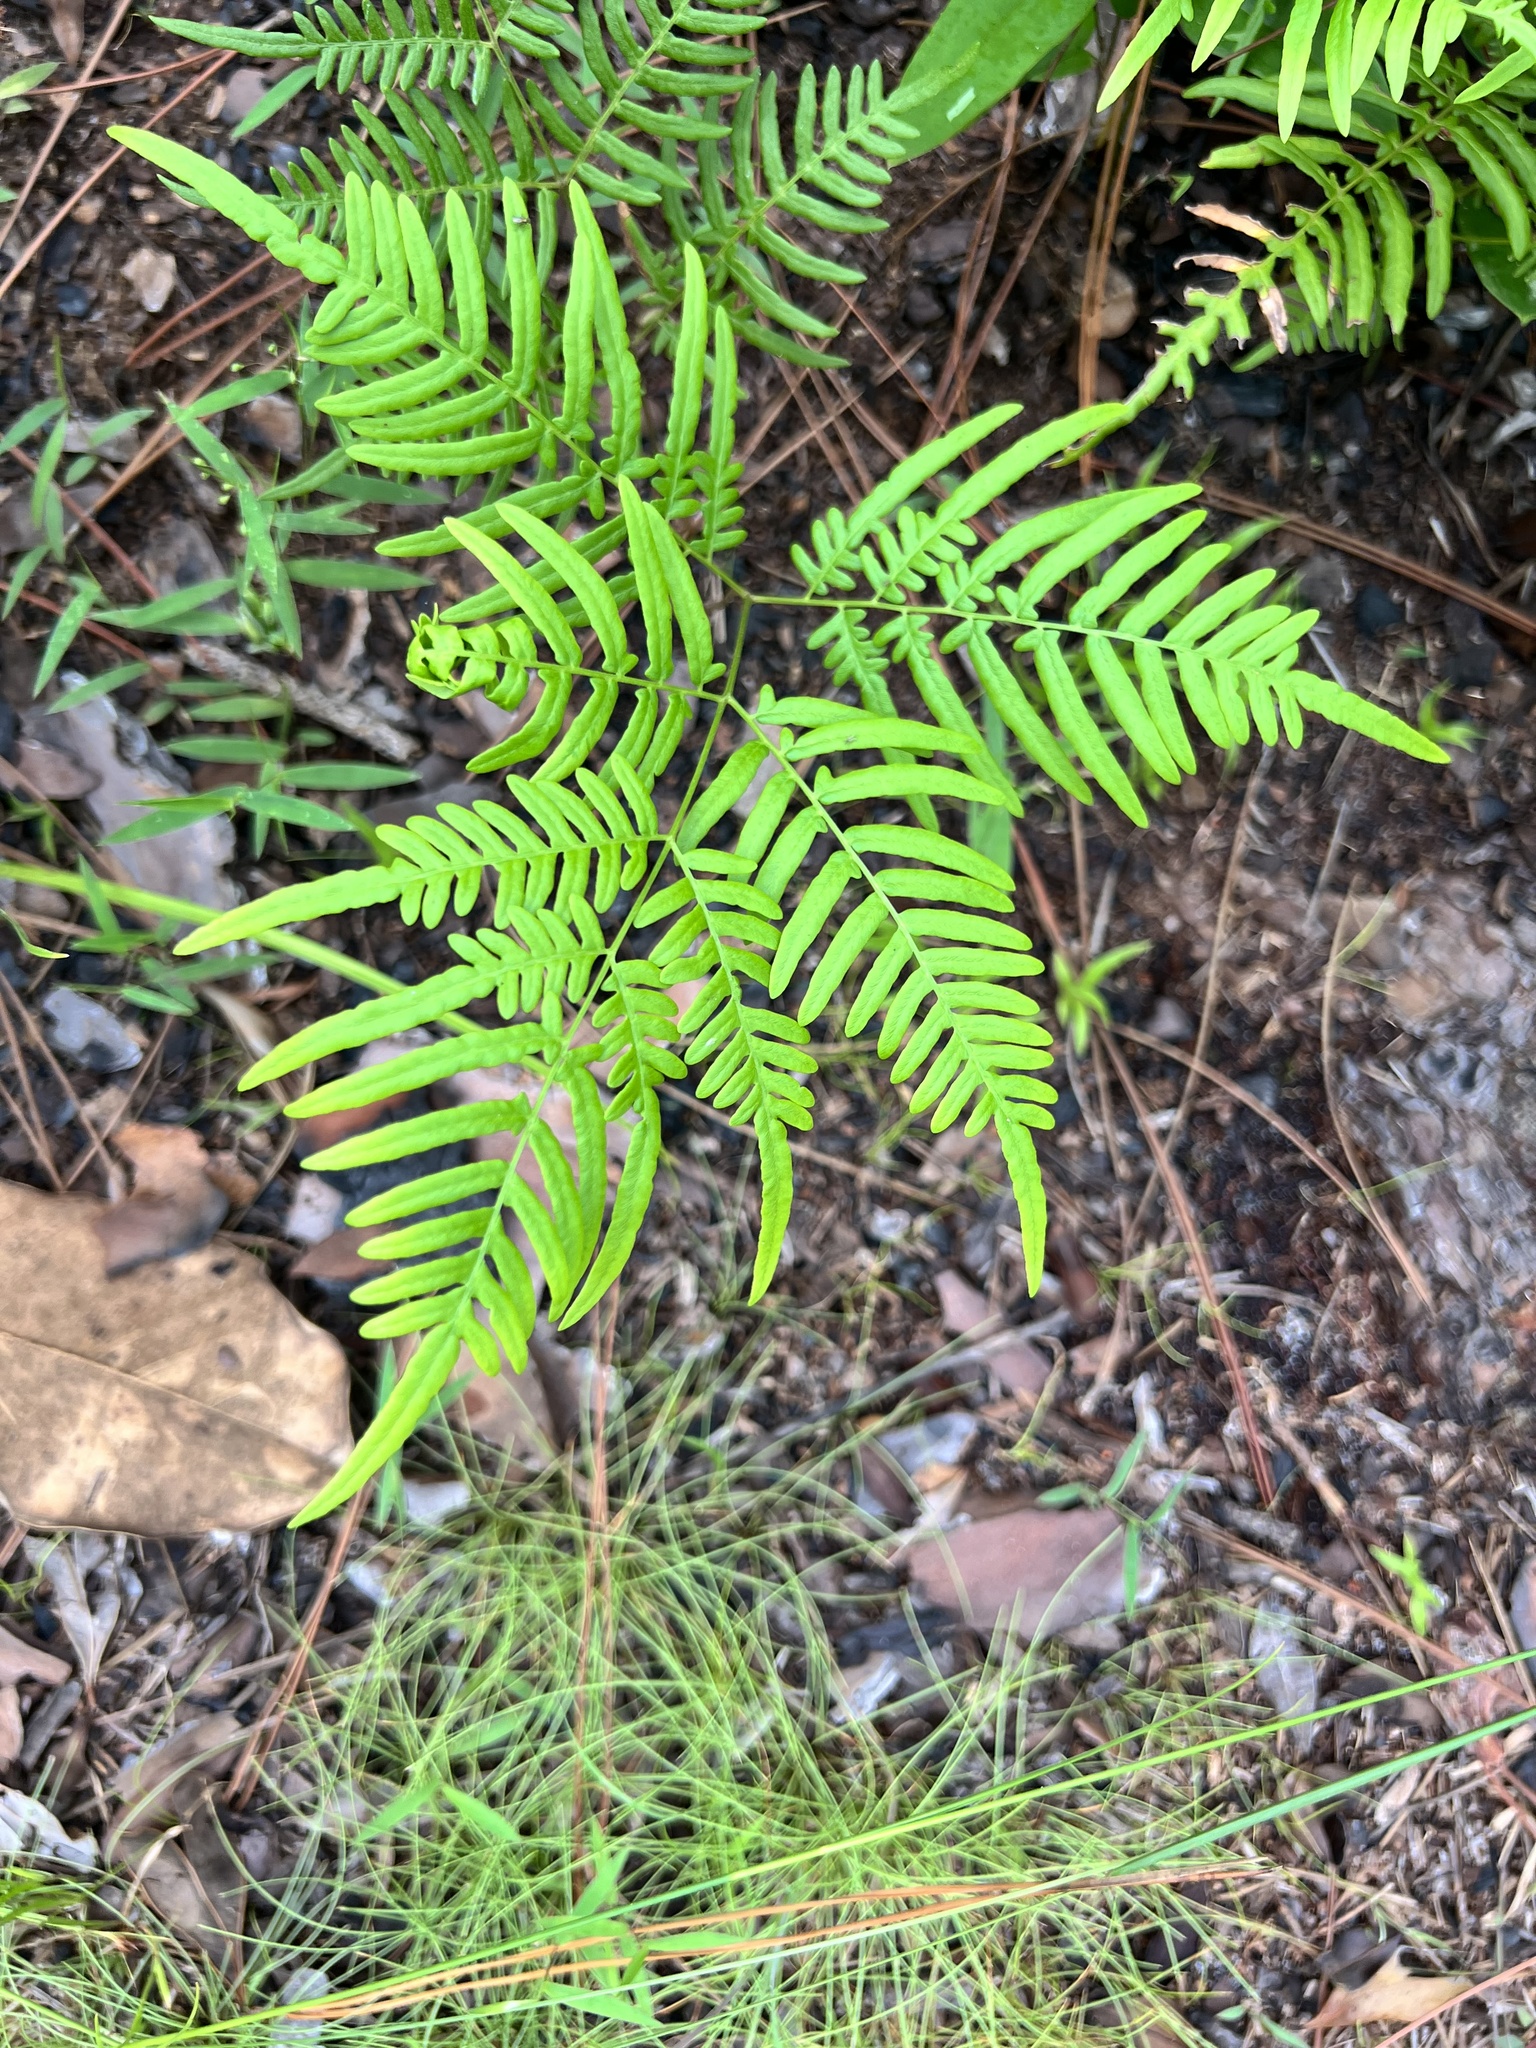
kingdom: Plantae
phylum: Tracheophyta
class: Polypodiopsida
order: Polypodiales
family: Dennstaedtiaceae
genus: Pteridium
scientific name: Pteridium
